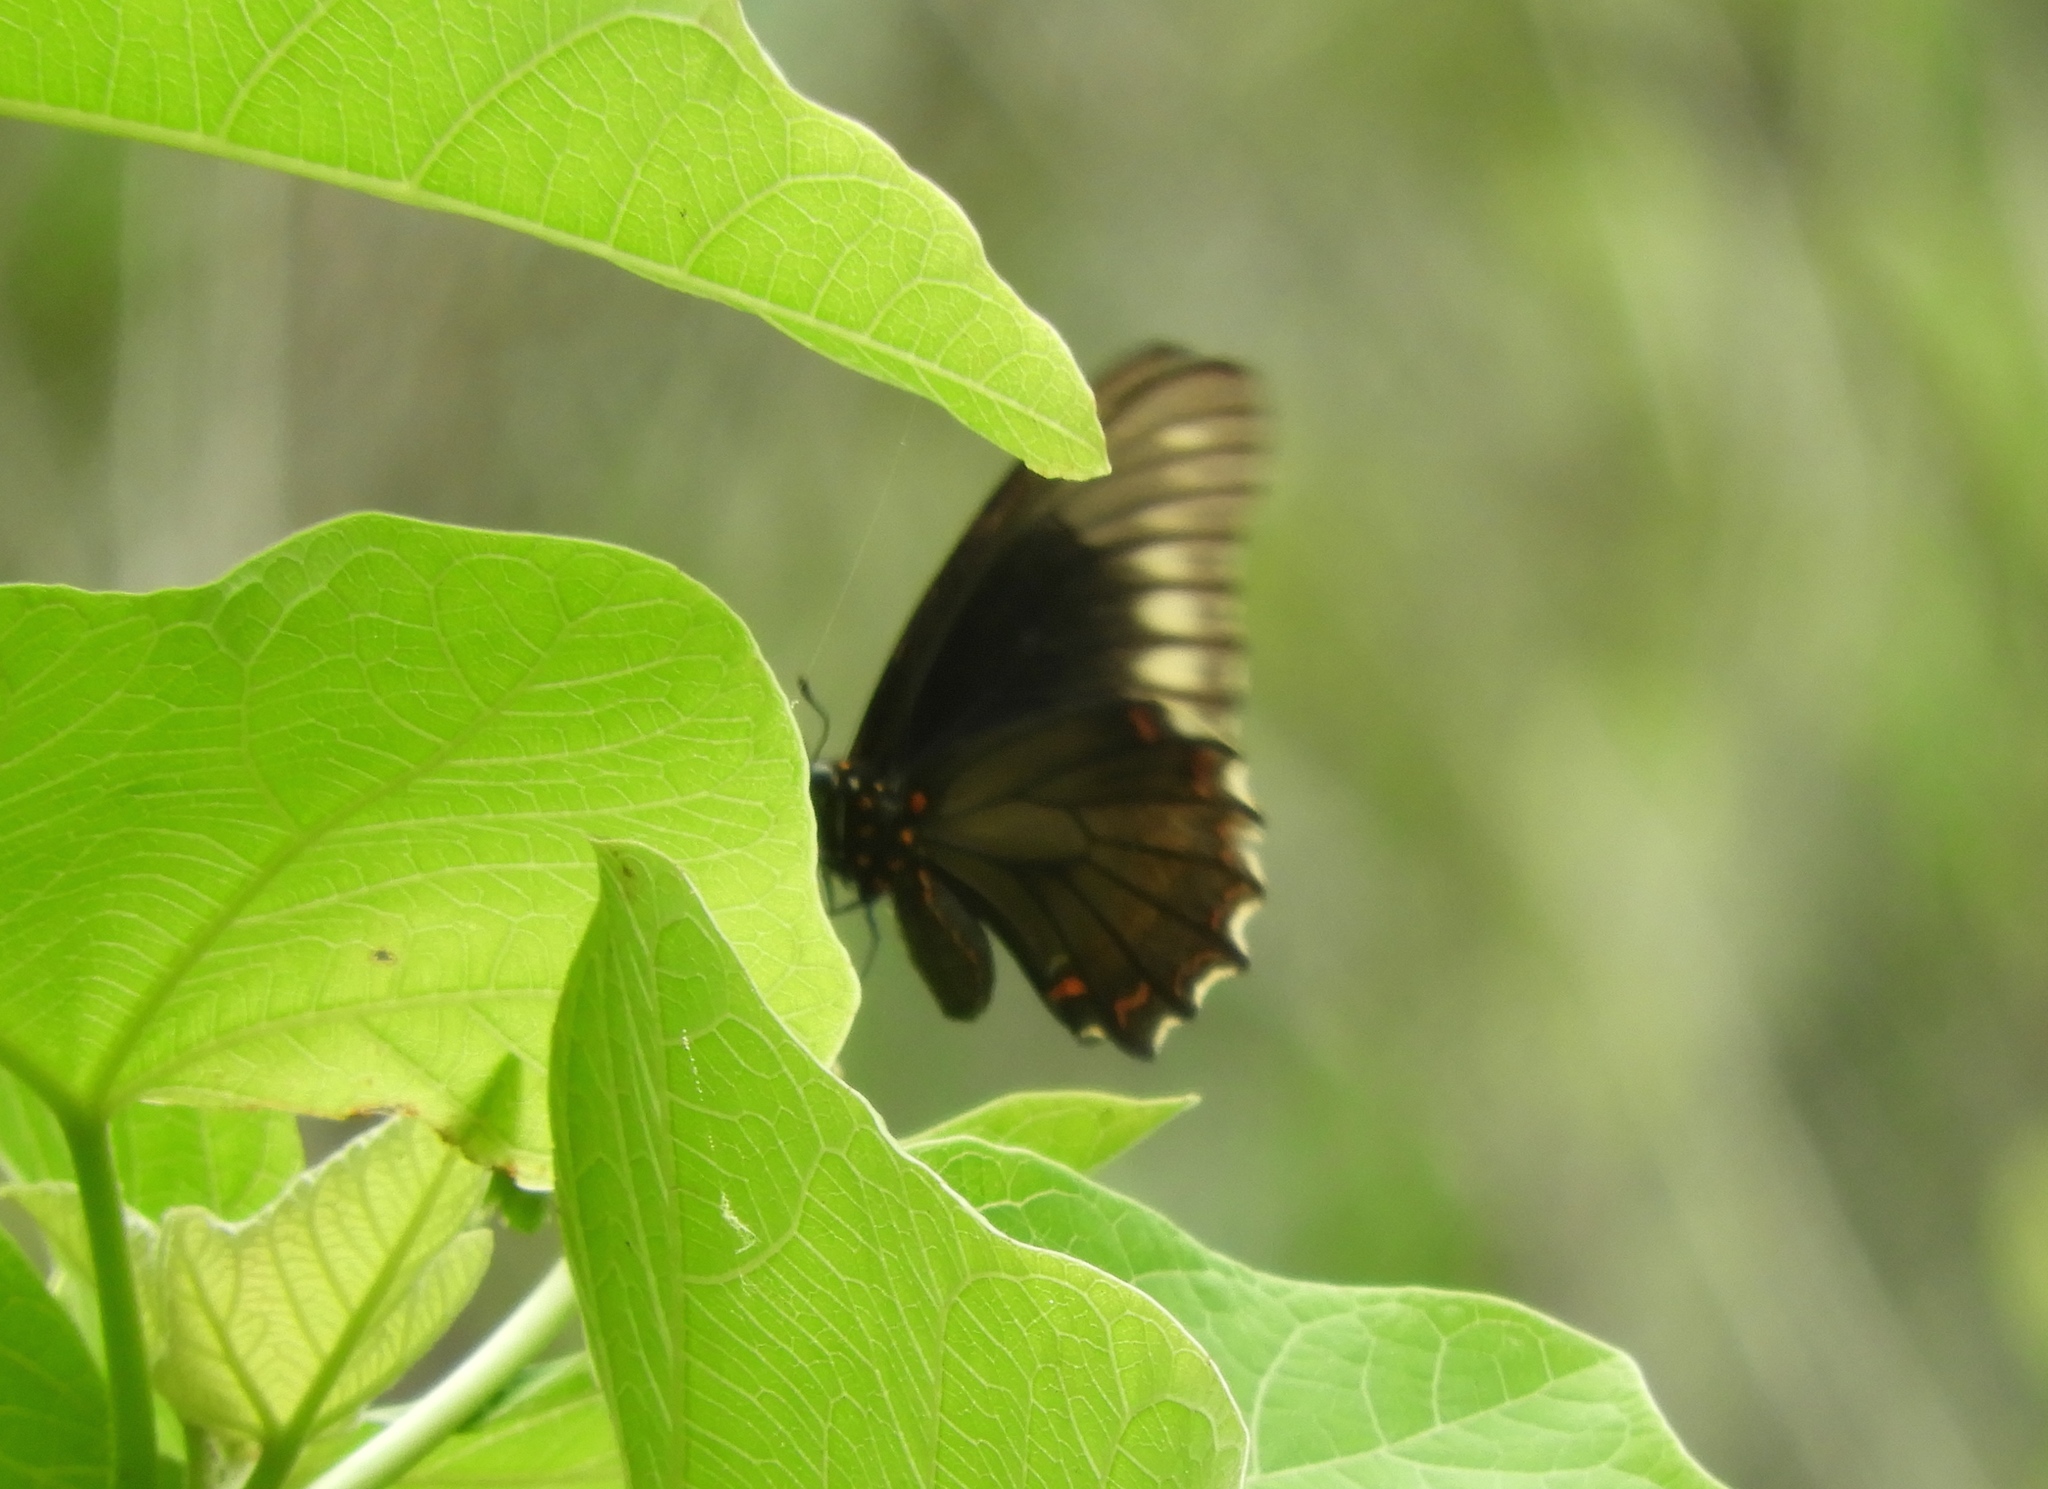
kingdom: Animalia
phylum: Arthropoda
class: Insecta
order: Lepidoptera
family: Papilionidae
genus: Battus
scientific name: Battus polydamas
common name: Polydamas swallowtail
